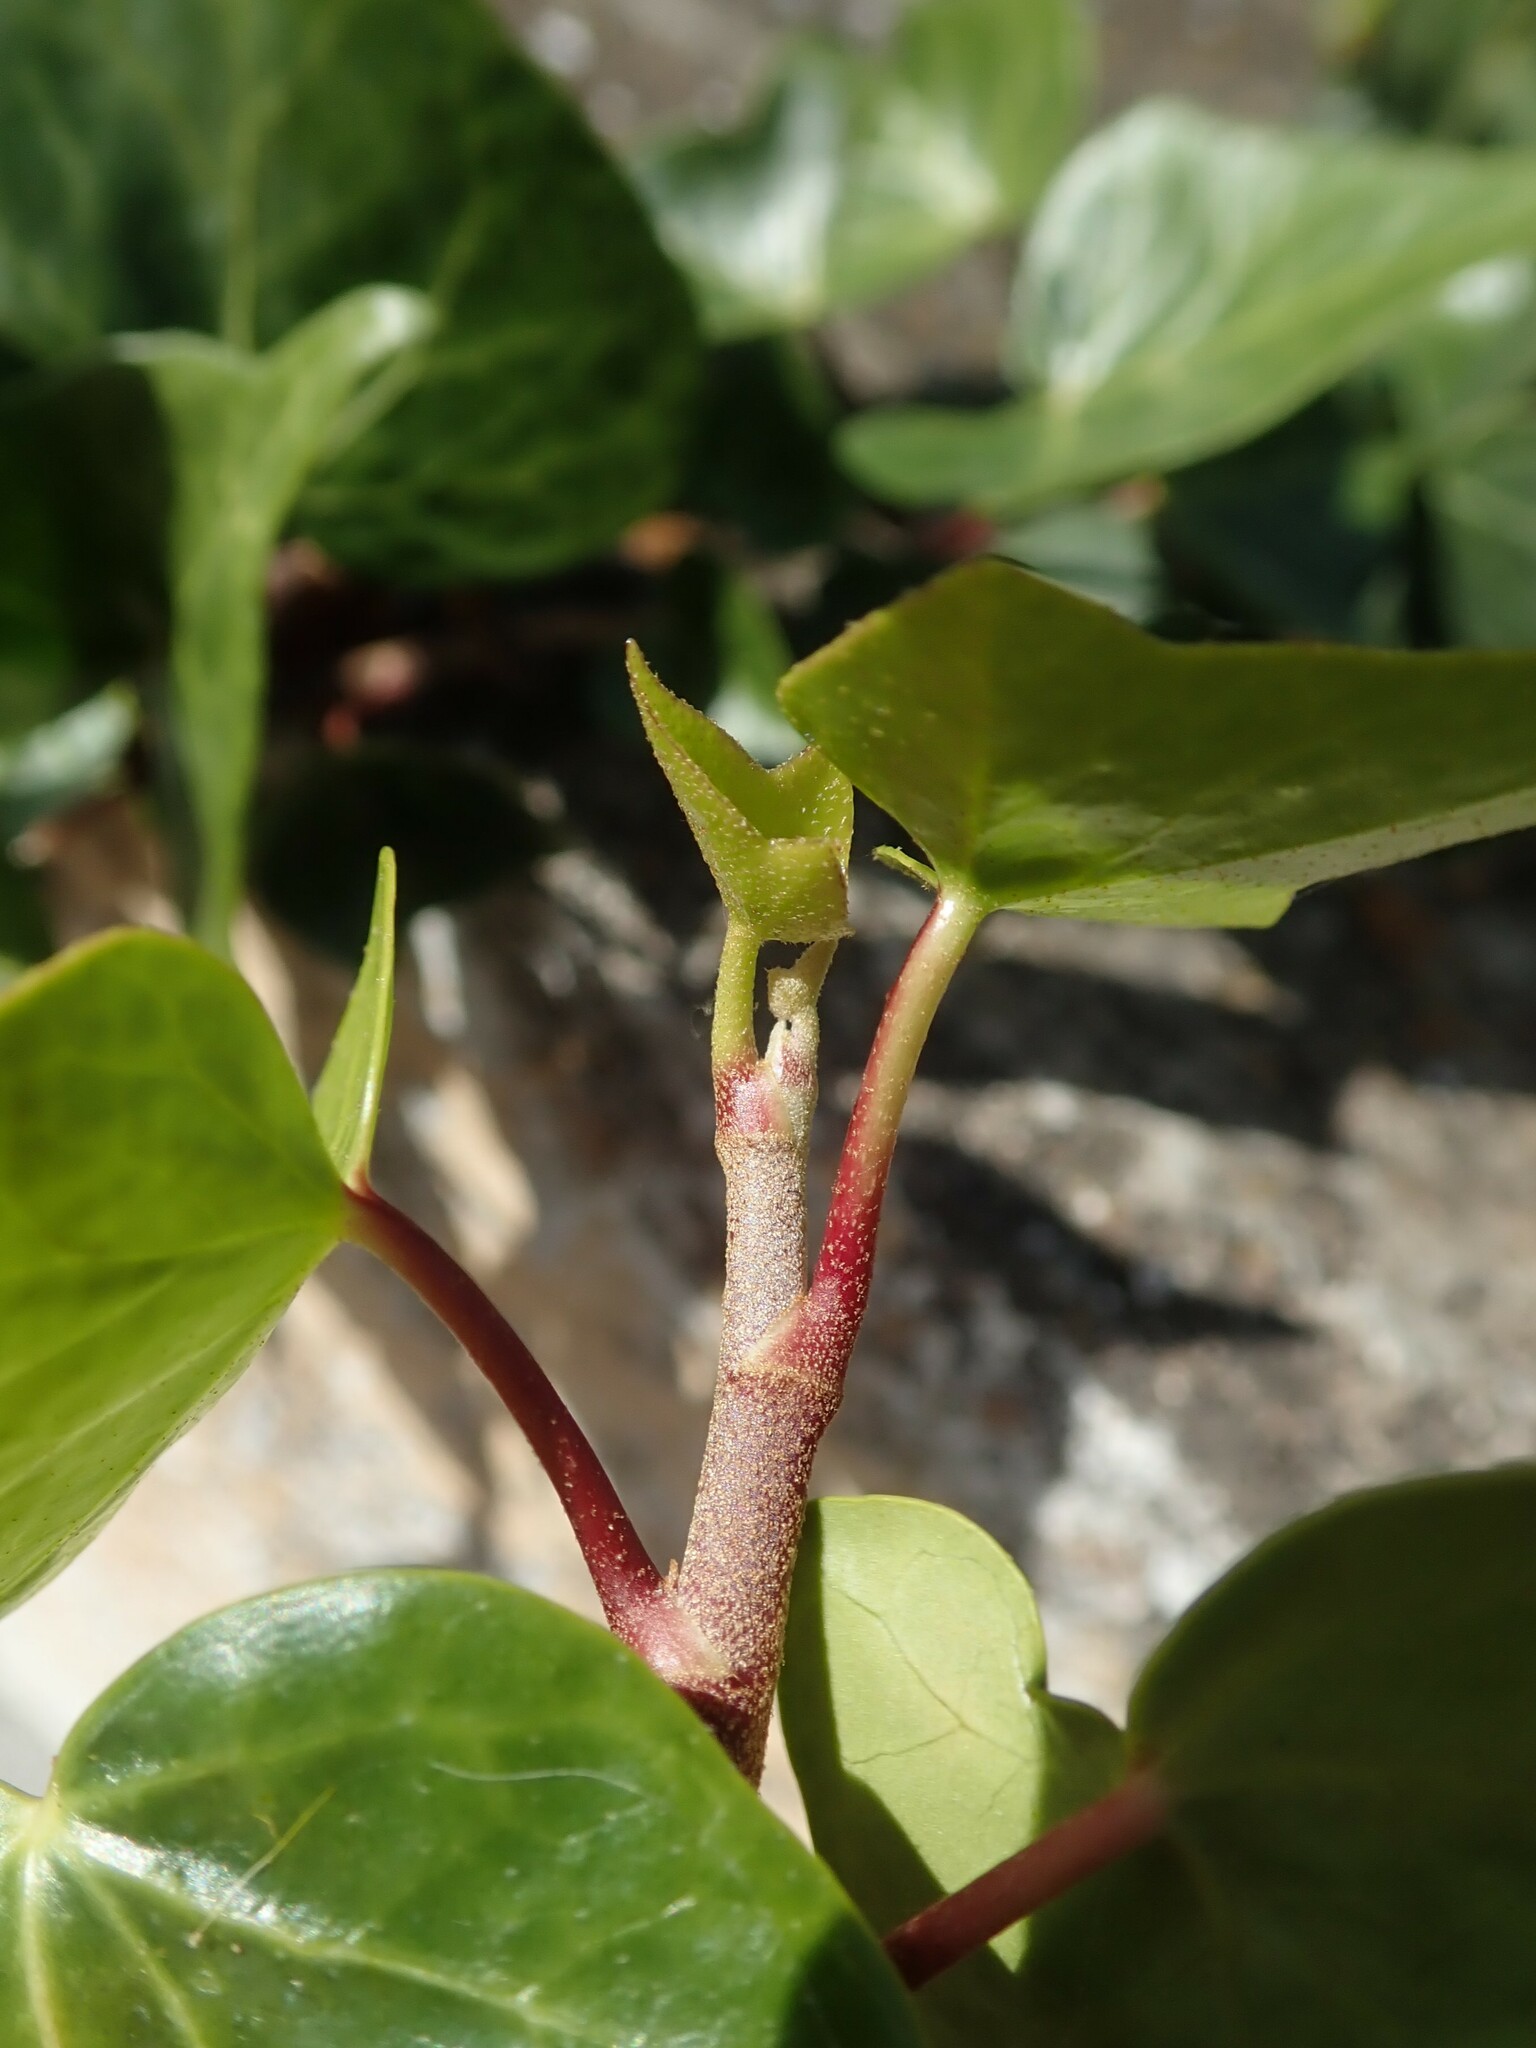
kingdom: Plantae
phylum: Tracheophyta
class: Magnoliopsida
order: Apiales
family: Araliaceae
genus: Hedera
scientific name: Hedera canariensis
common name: Madeira ivy
